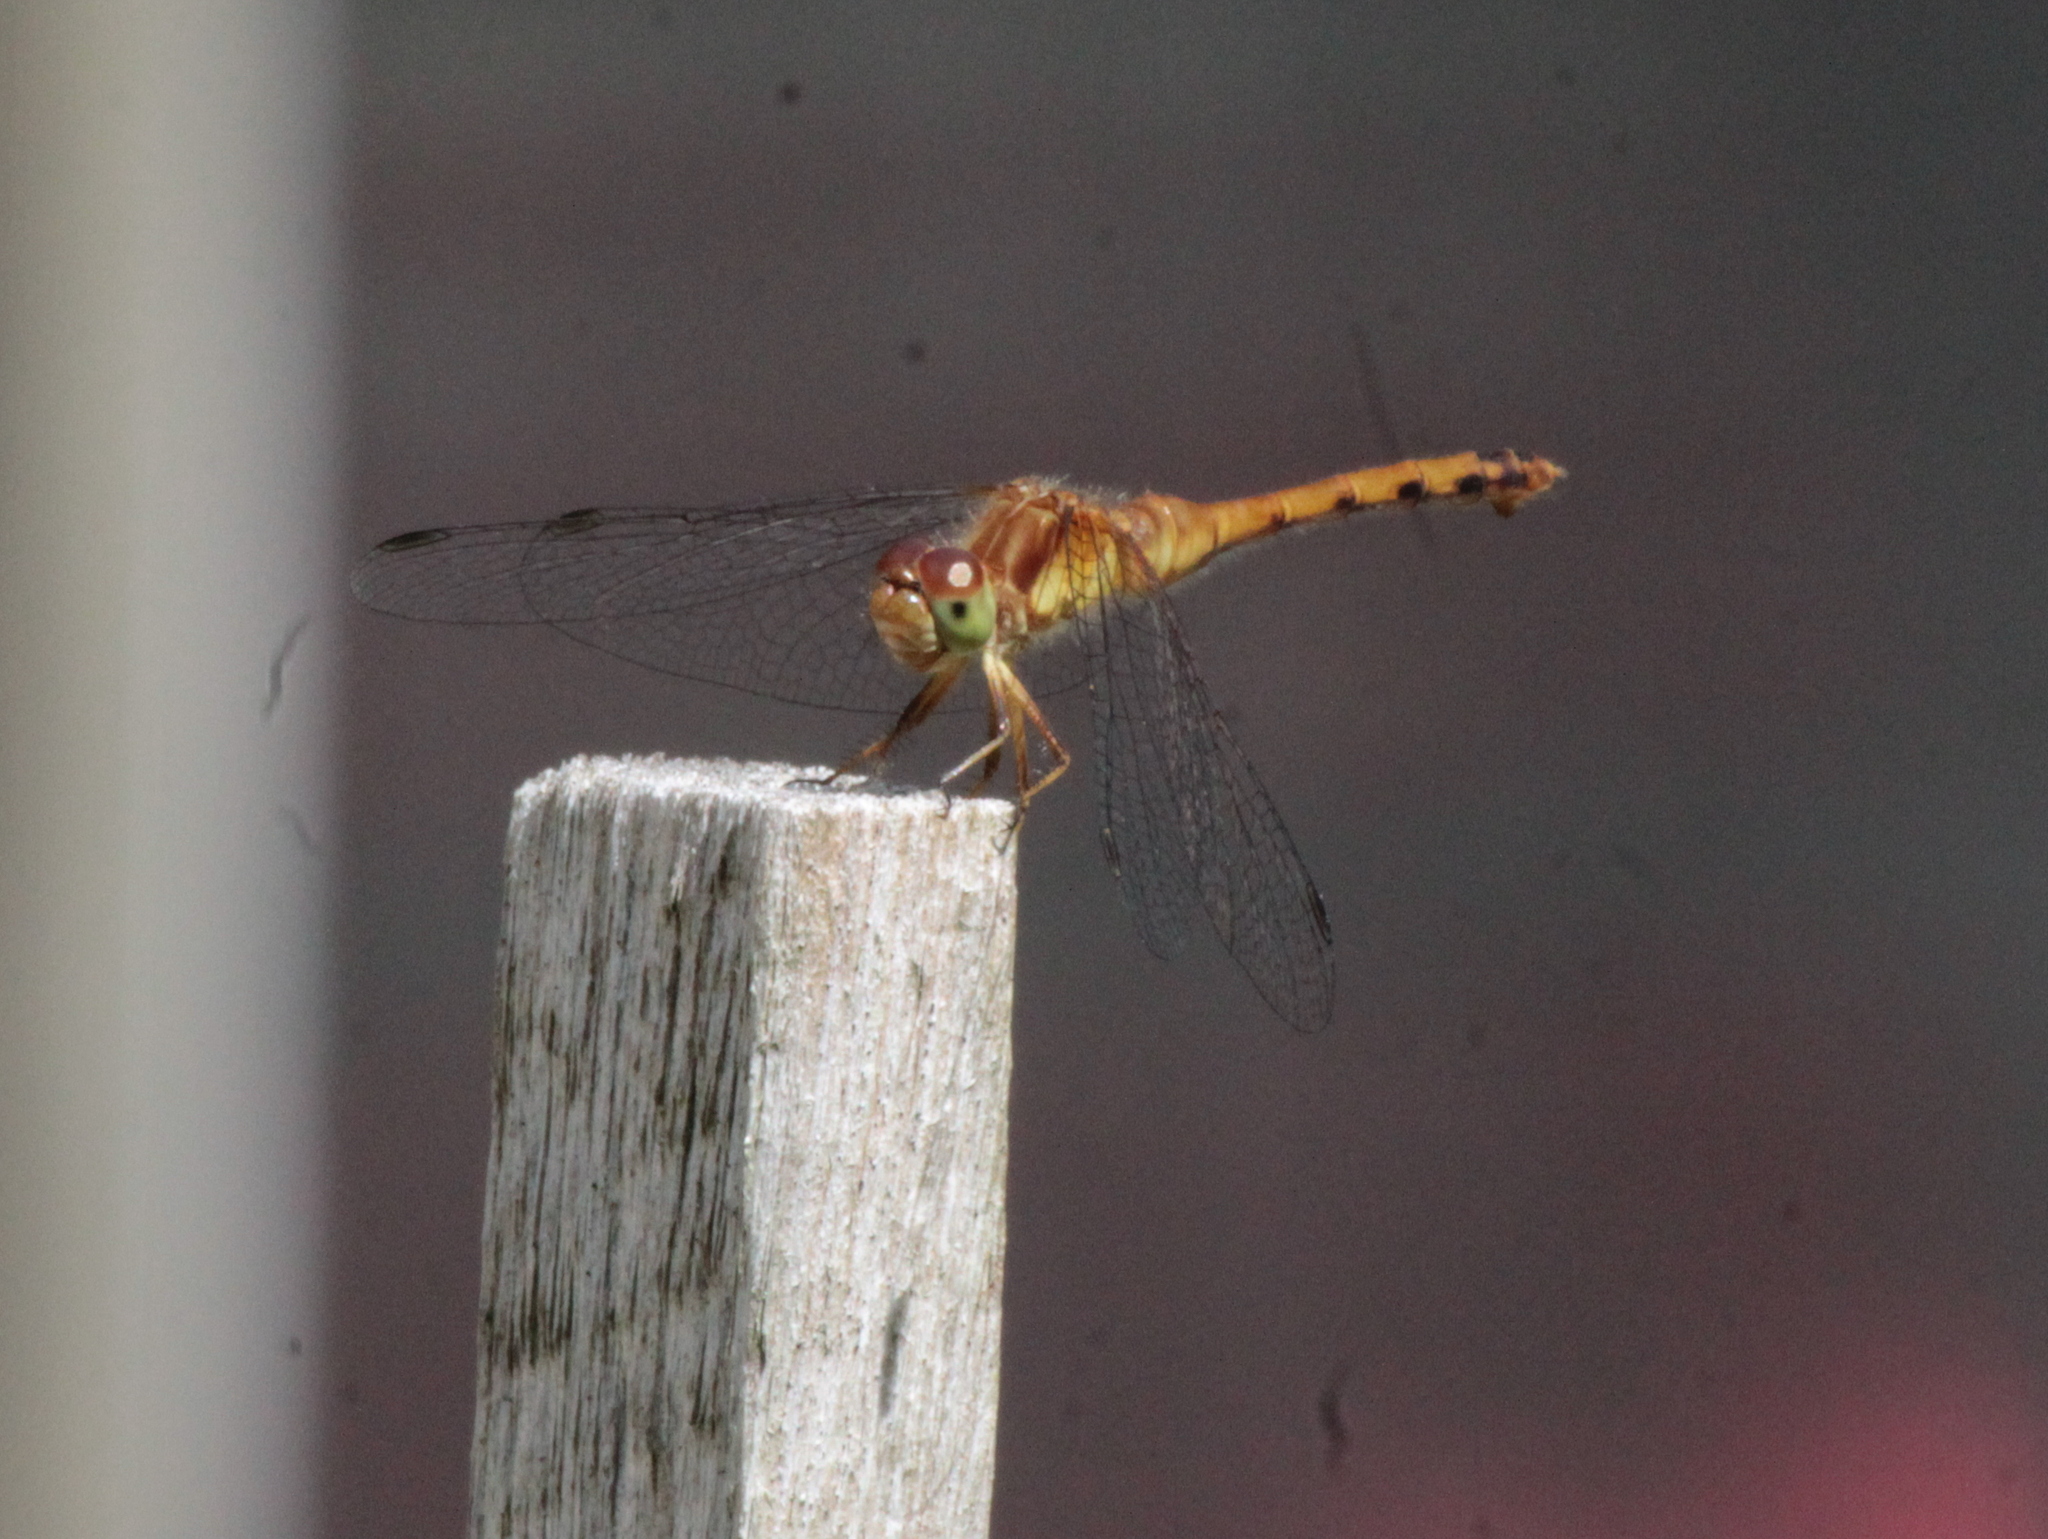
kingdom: Animalia
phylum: Arthropoda
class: Insecta
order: Odonata
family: Libellulidae
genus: Sympetrum
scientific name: Sympetrum vicinum
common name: Autumn meadowhawk
